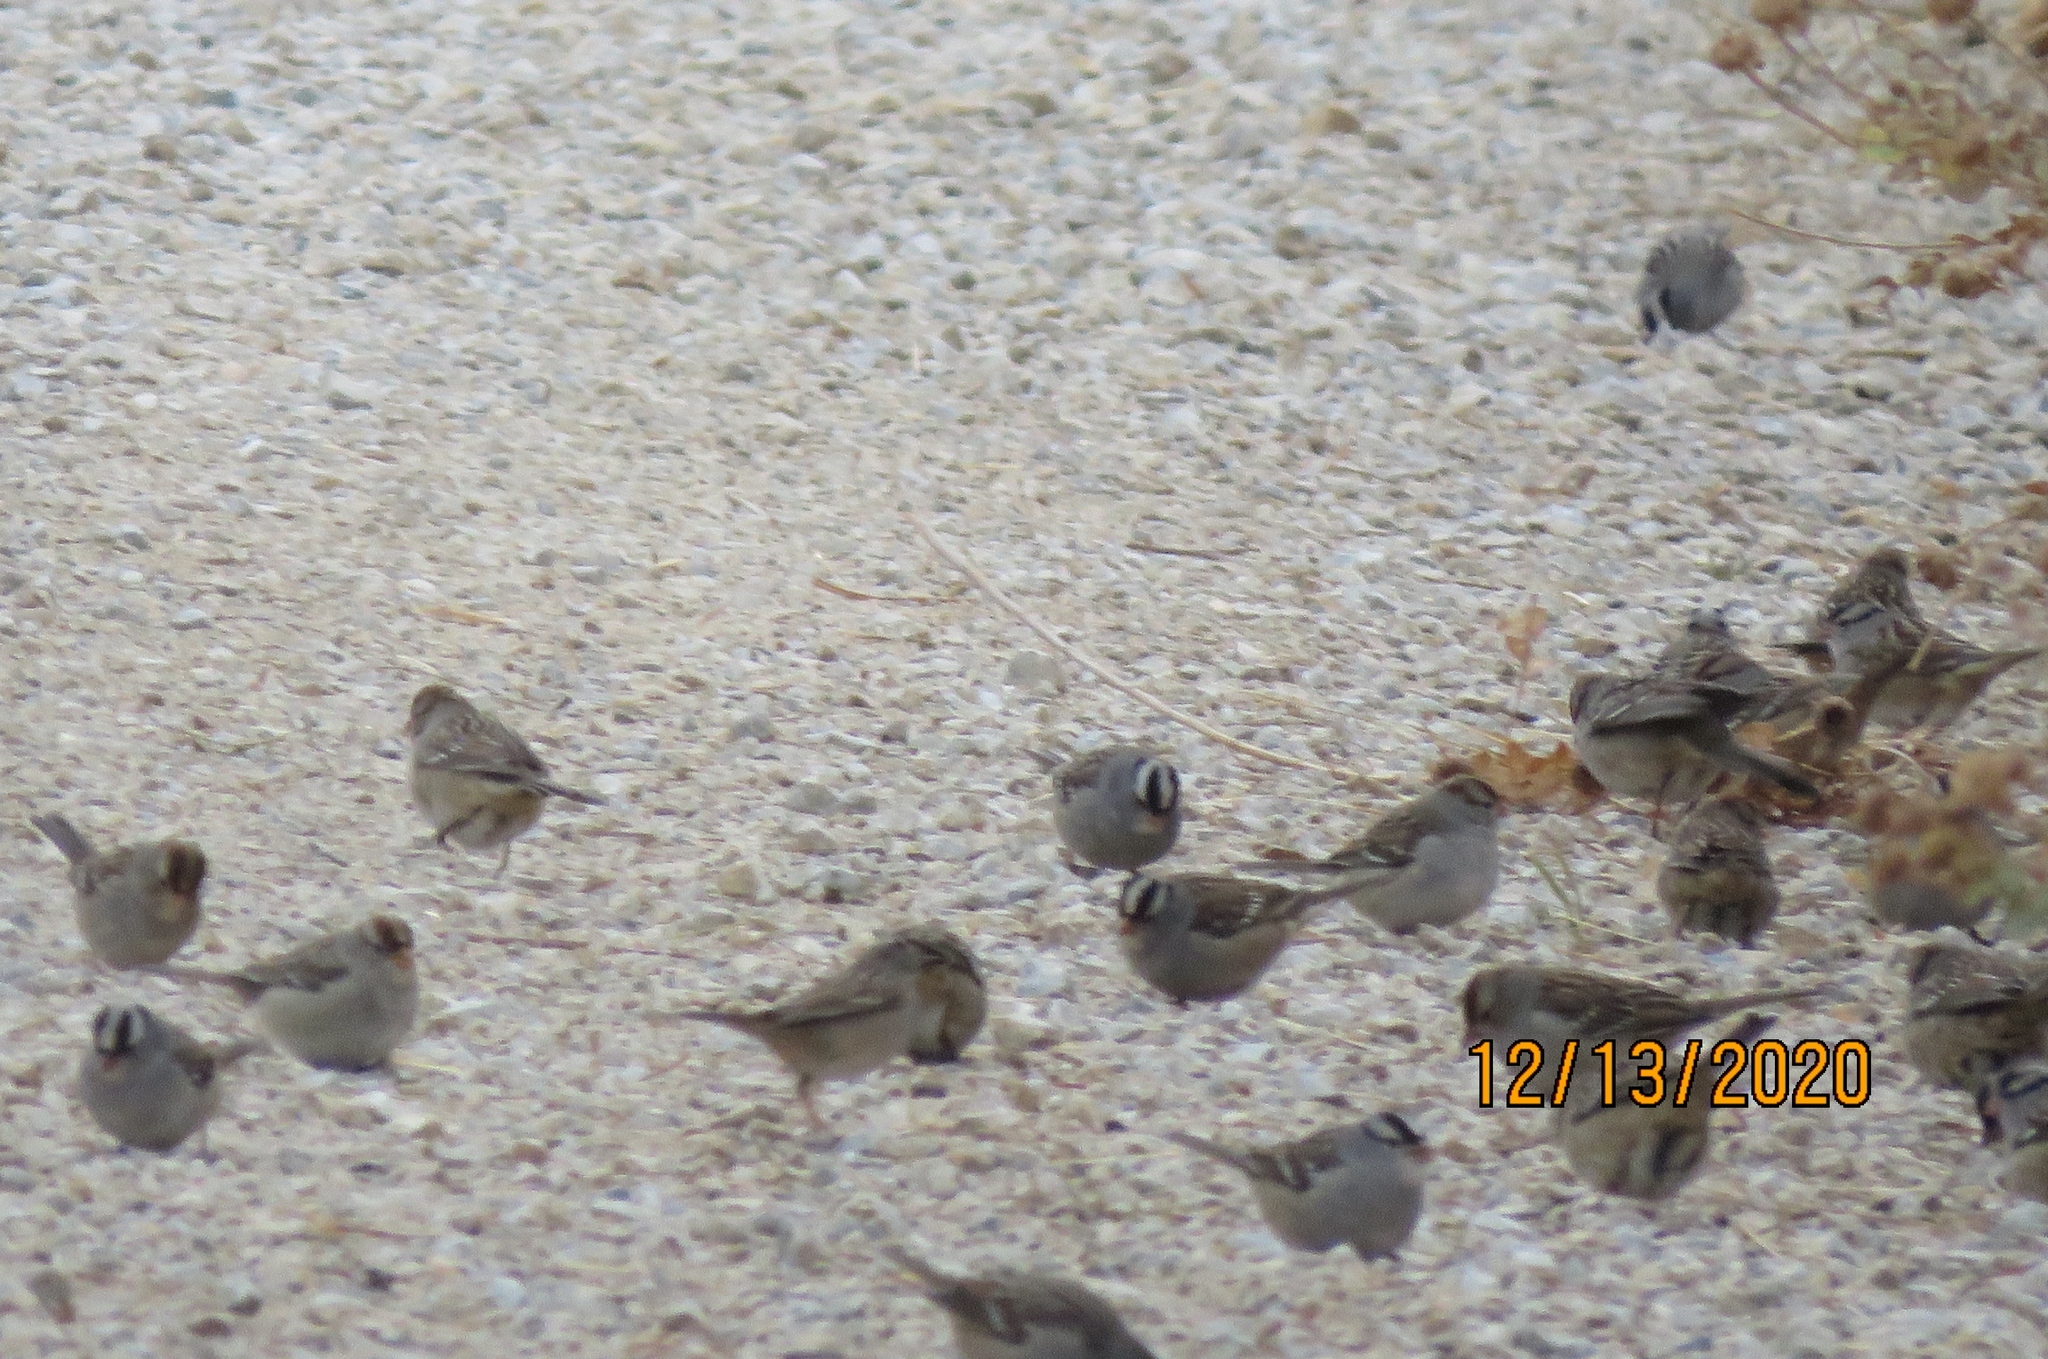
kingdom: Animalia
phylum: Chordata
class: Aves
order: Passeriformes
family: Passerellidae
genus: Zonotrichia
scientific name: Zonotrichia leucophrys
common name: White-crowned sparrow
